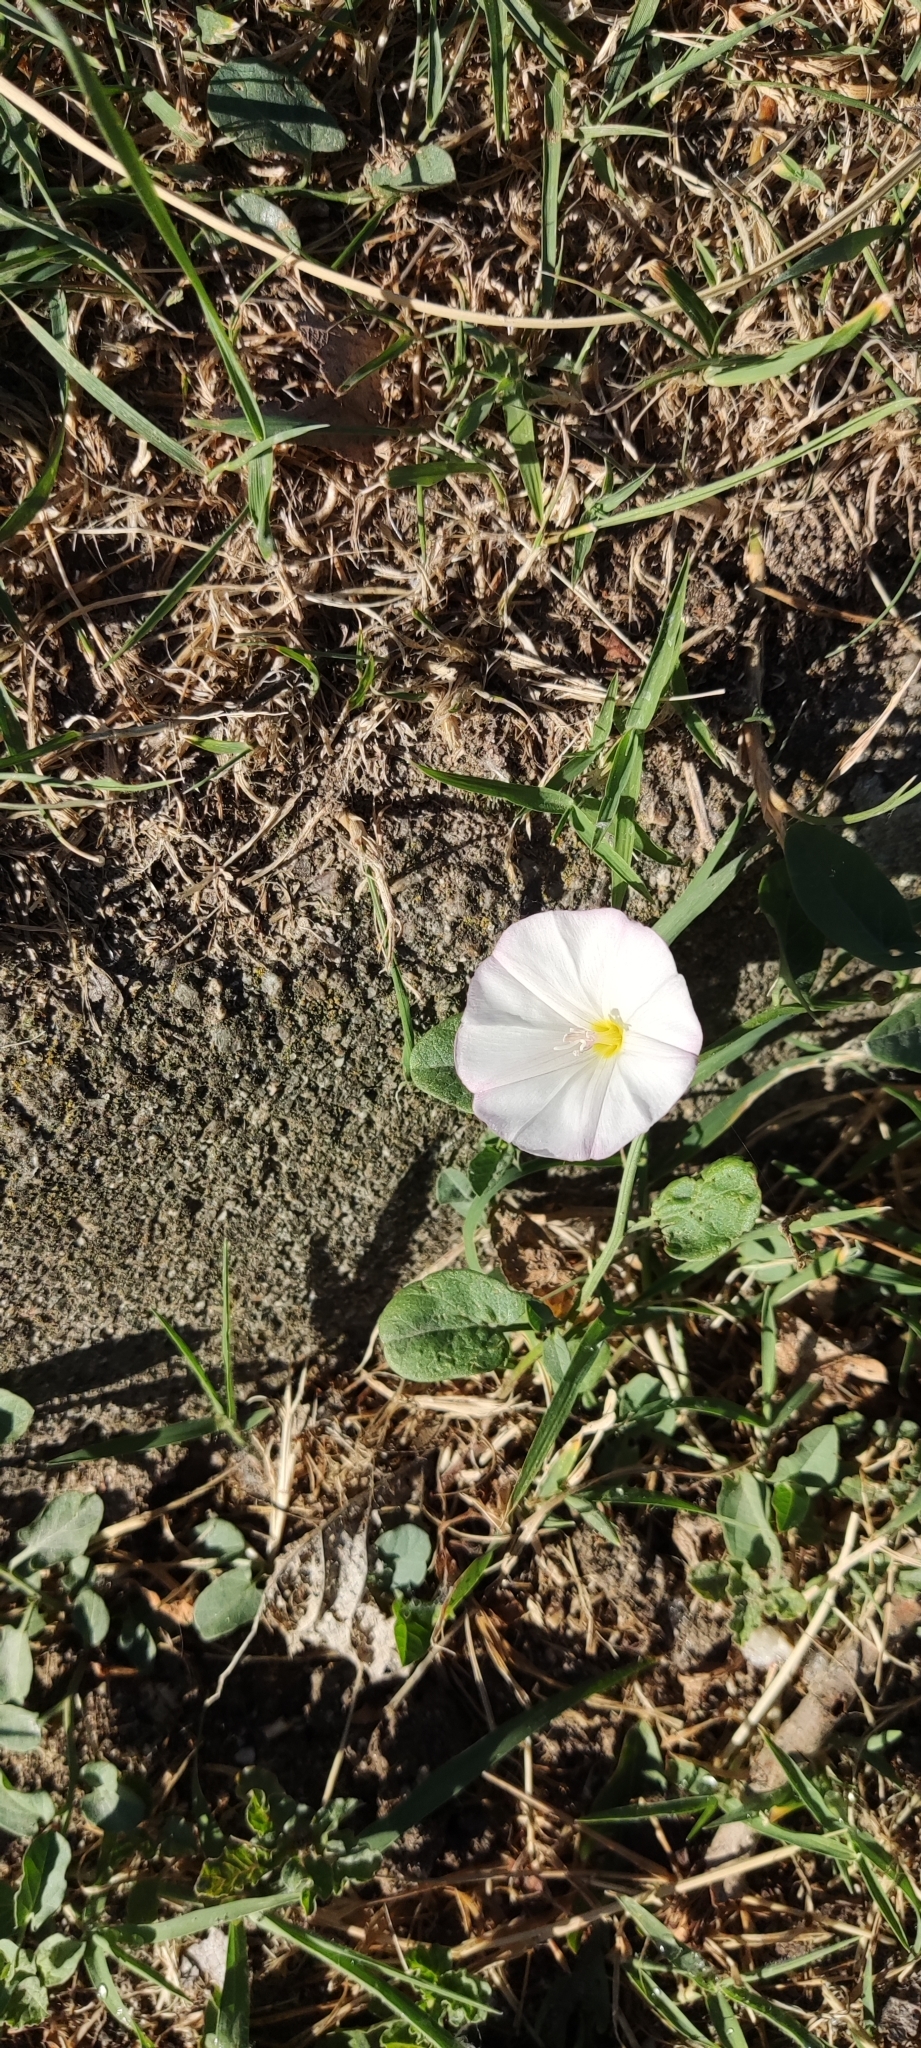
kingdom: Plantae
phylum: Tracheophyta
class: Magnoliopsida
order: Solanales
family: Convolvulaceae
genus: Convolvulus
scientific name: Convolvulus arvensis
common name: Field bindweed
